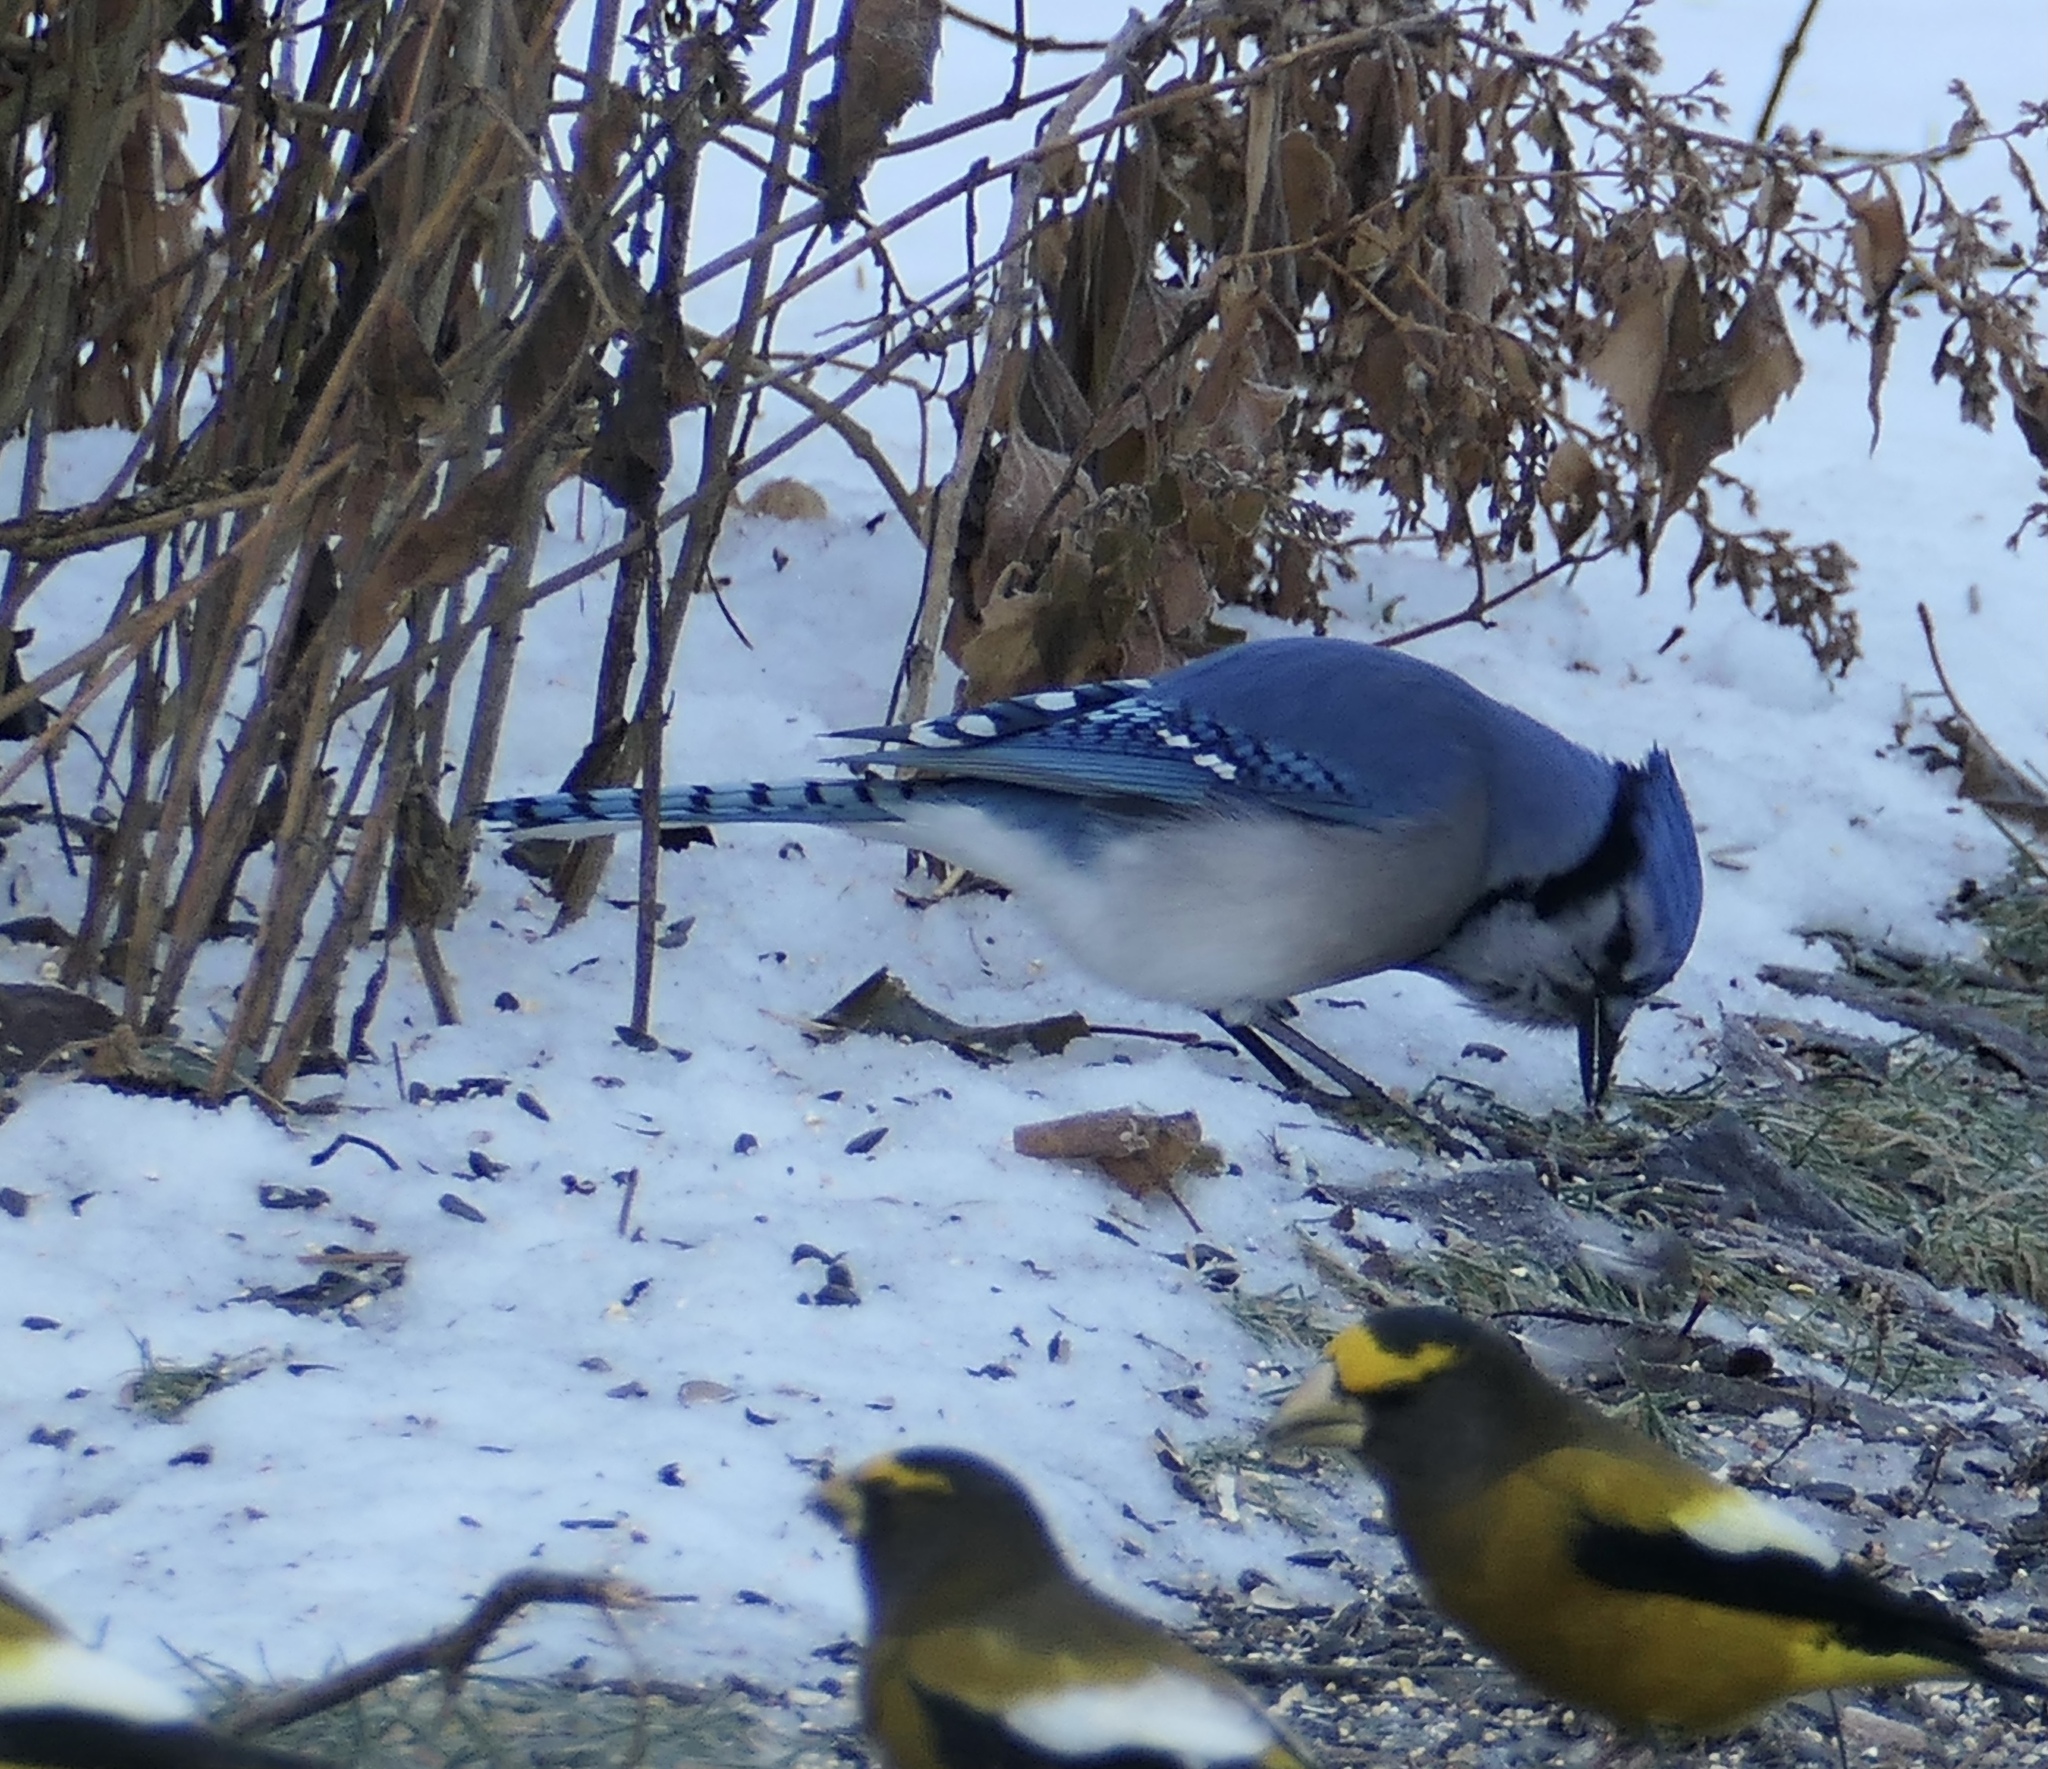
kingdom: Animalia
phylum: Chordata
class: Aves
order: Passeriformes
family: Corvidae
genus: Cyanocitta
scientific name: Cyanocitta cristata
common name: Blue jay
